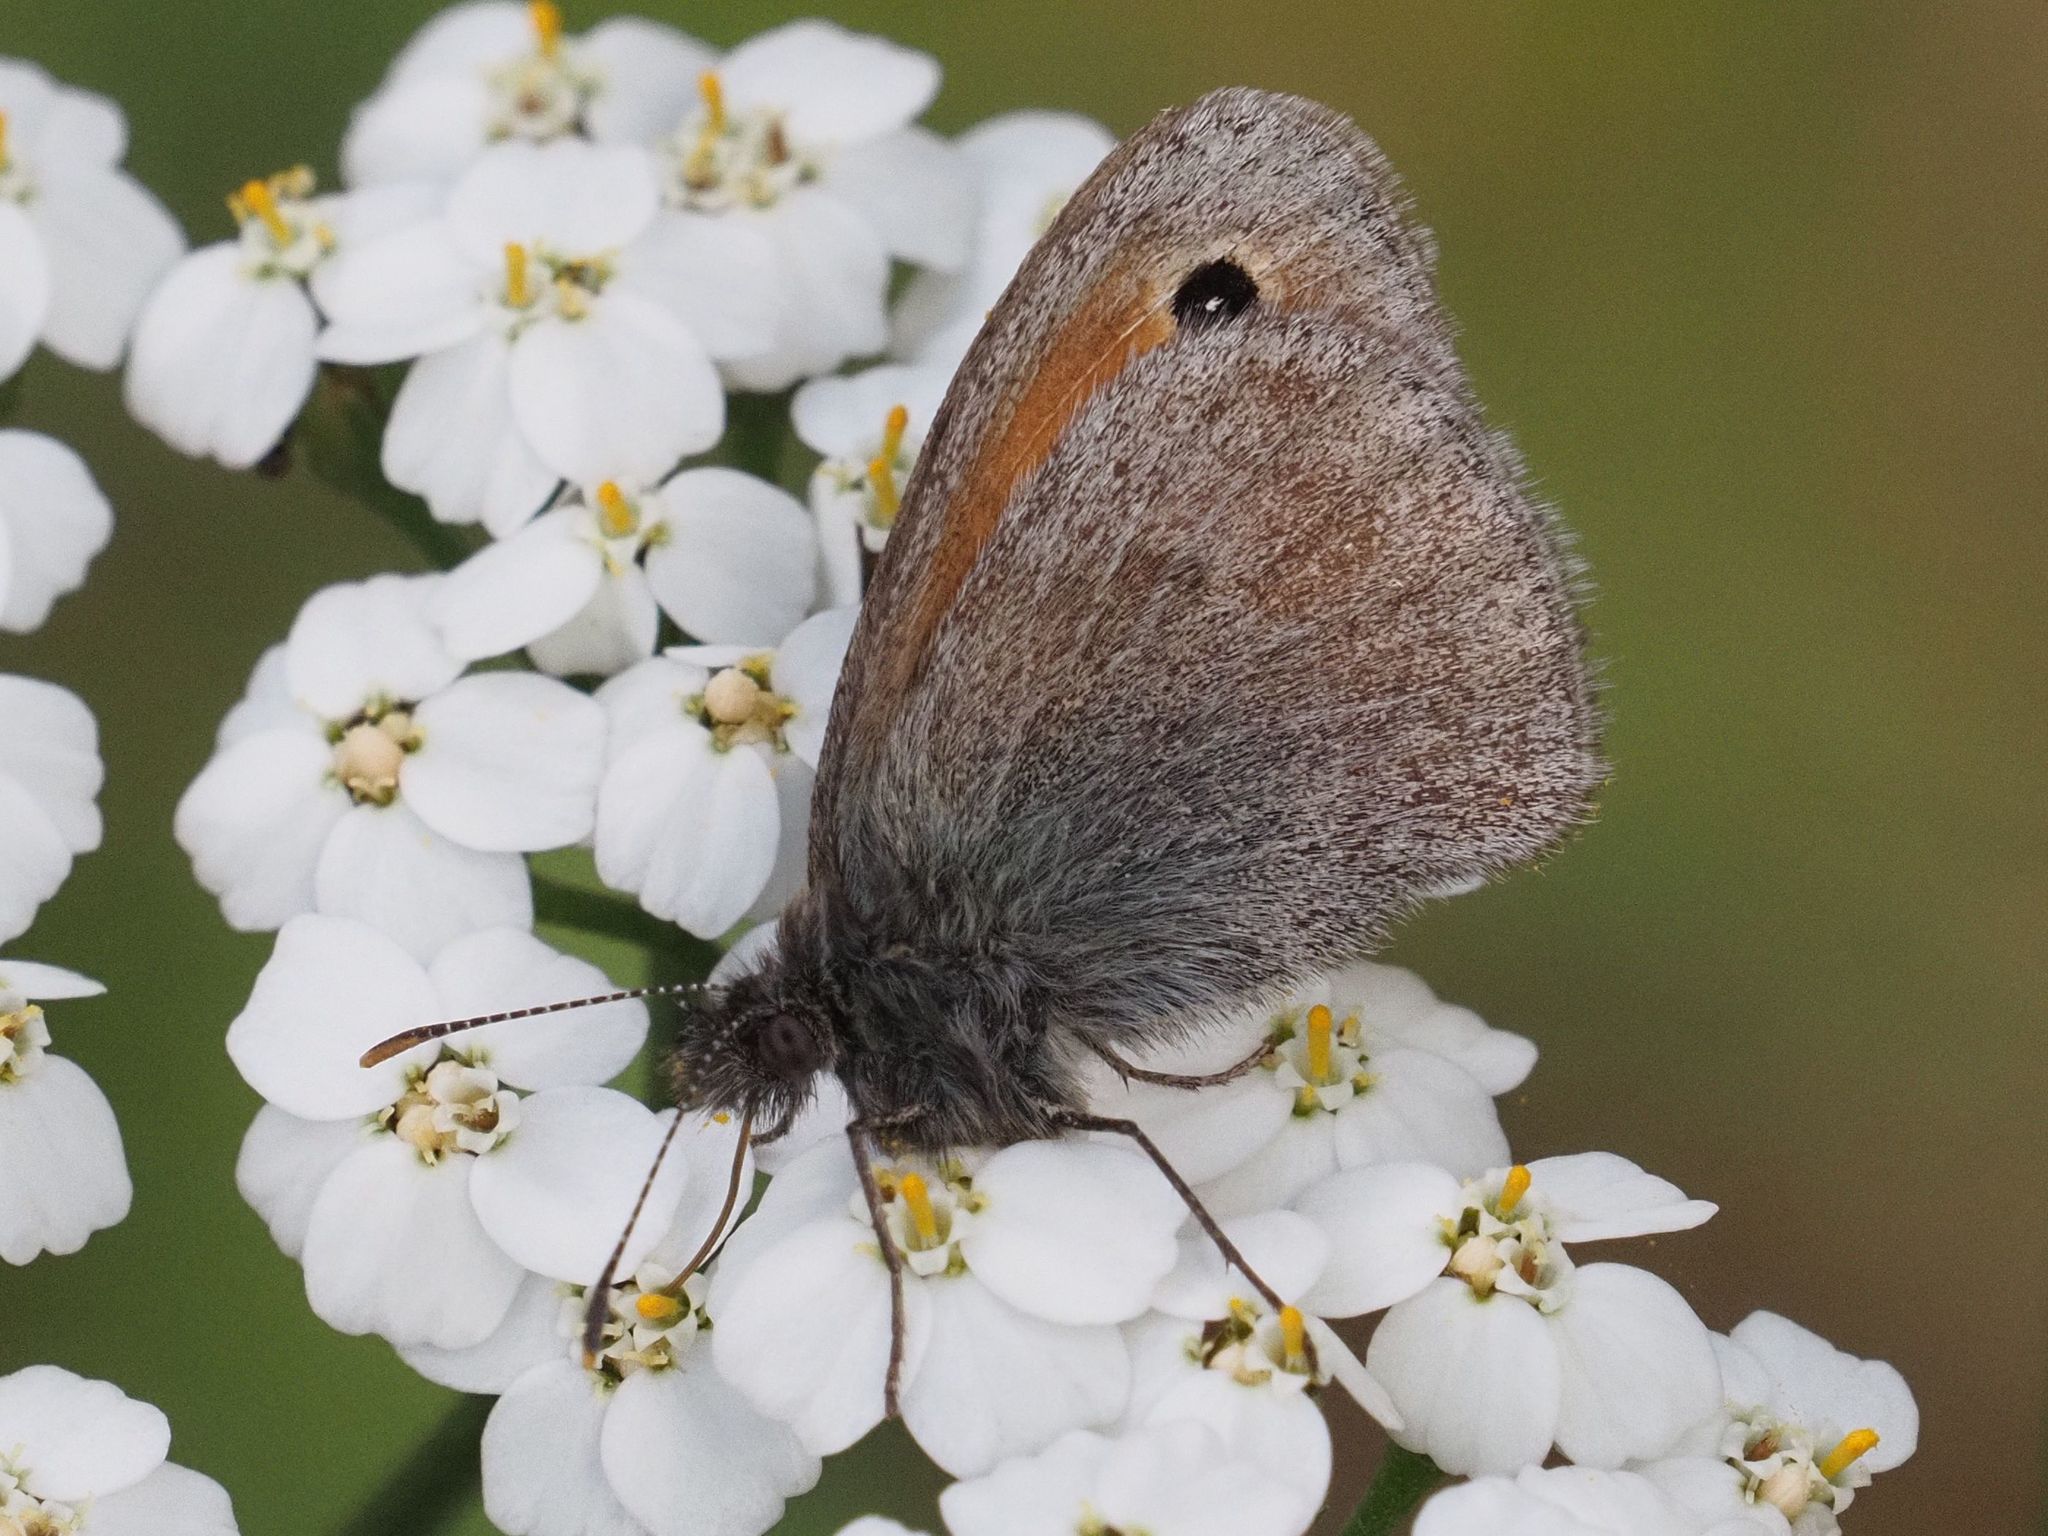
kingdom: Animalia
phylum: Arthropoda
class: Insecta
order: Lepidoptera
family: Nymphalidae
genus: Coenonympha
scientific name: Coenonympha pamphilus
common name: Small heath
